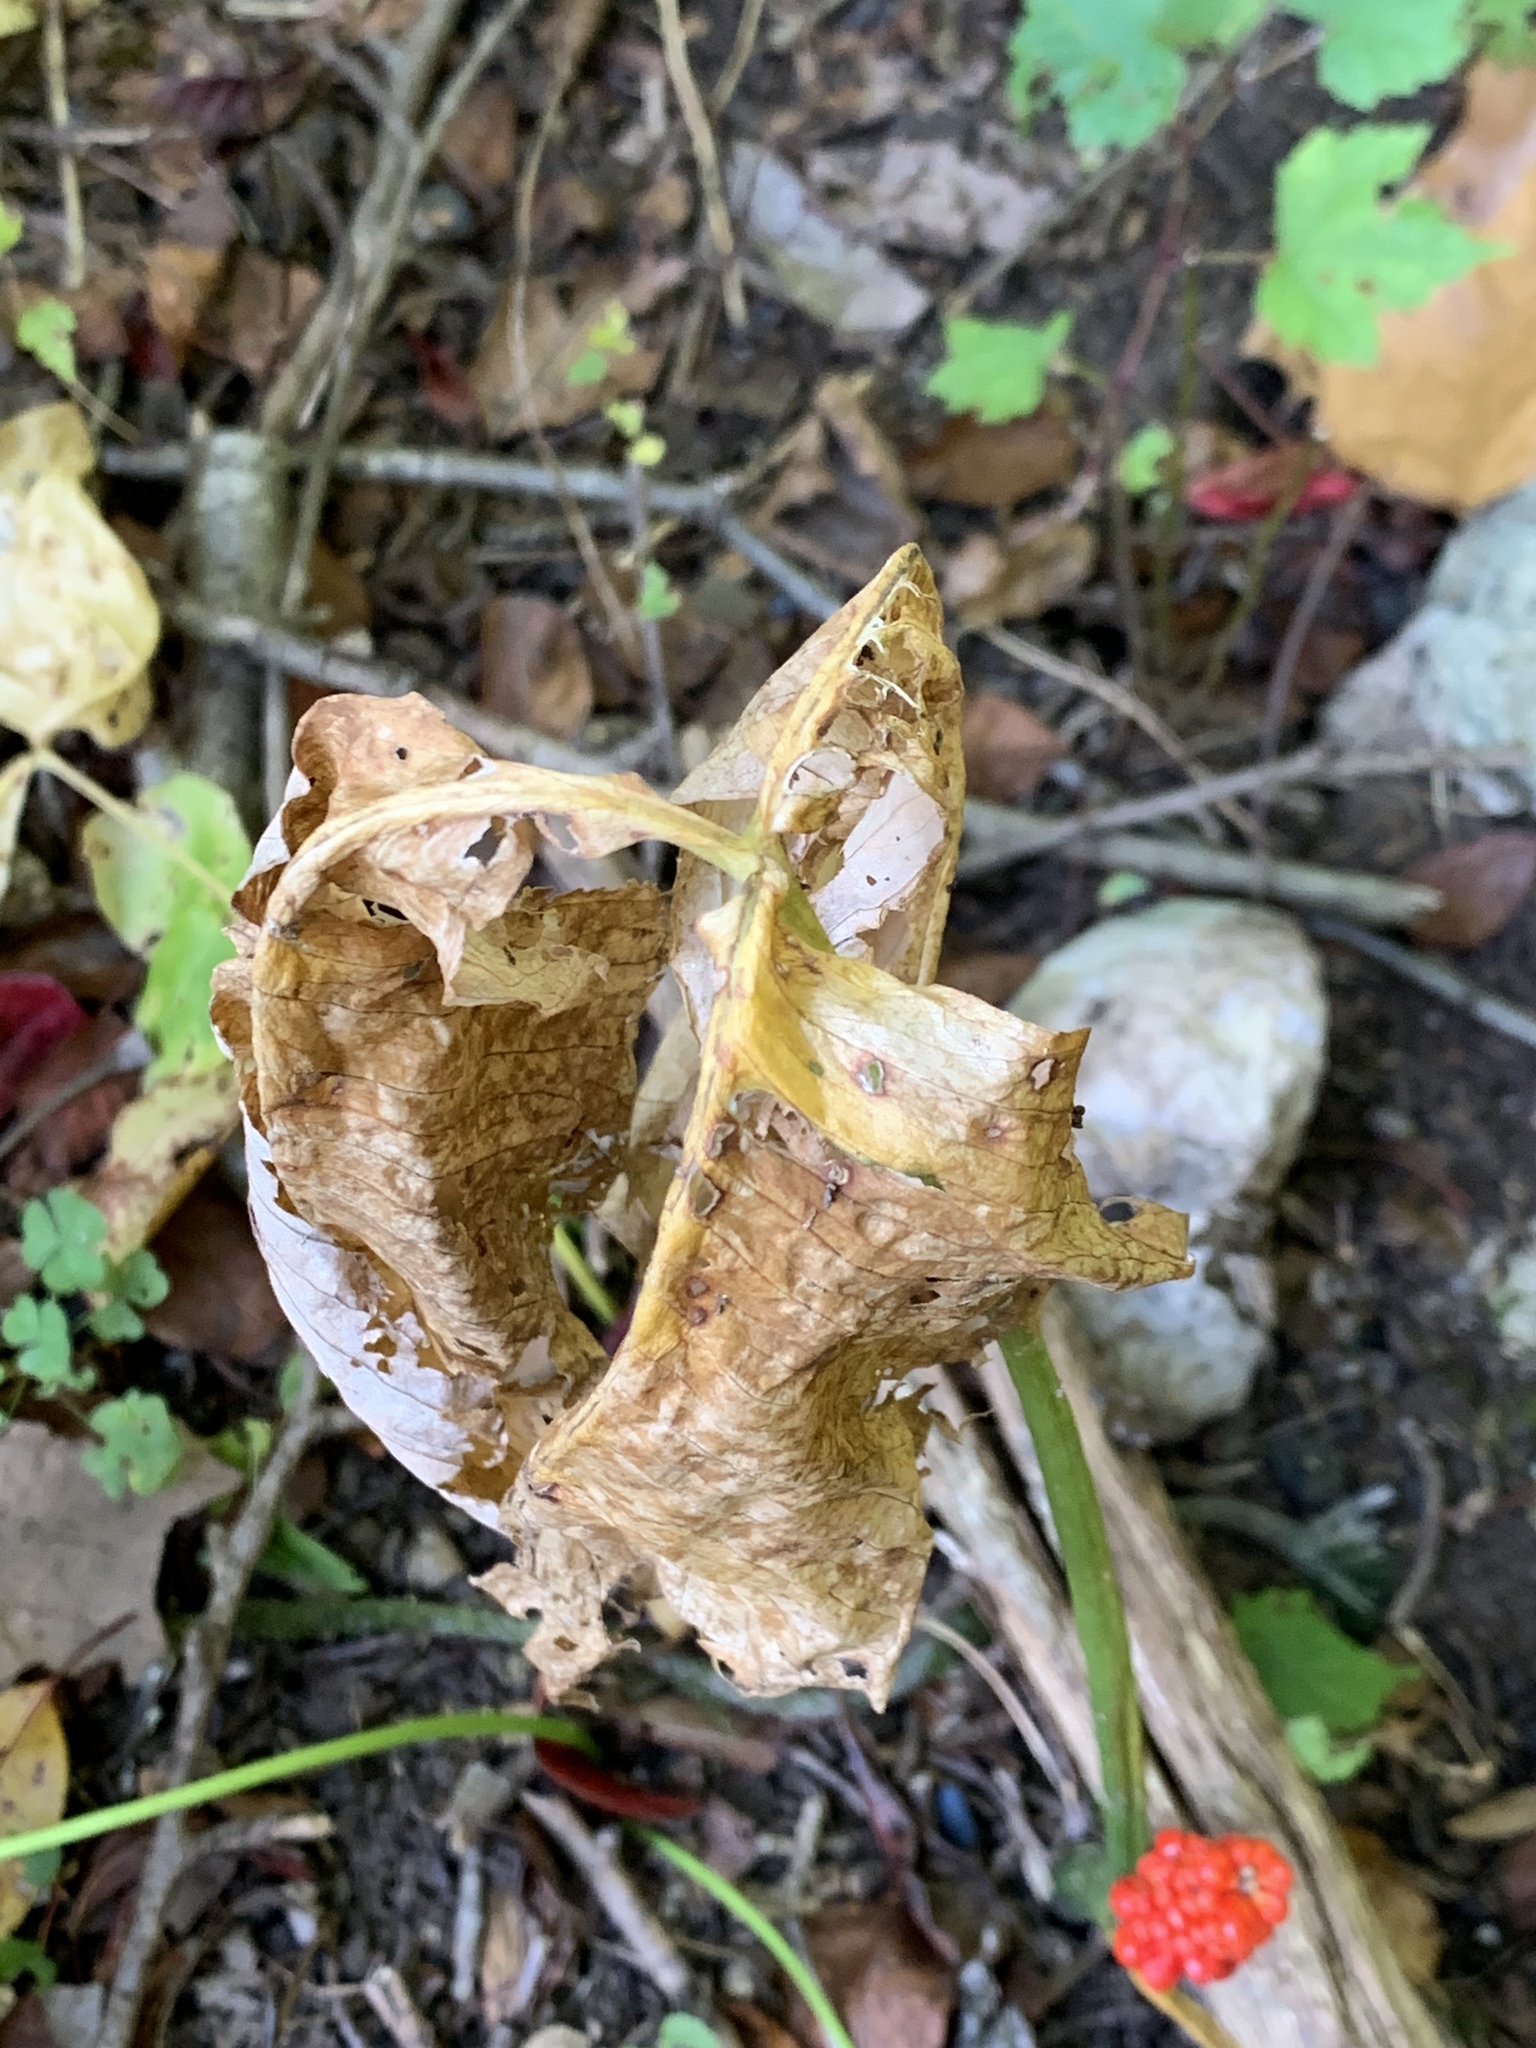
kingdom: Plantae
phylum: Tracheophyta
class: Liliopsida
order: Alismatales
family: Araceae
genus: Arisaema
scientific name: Arisaema triphyllum
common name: Jack-in-the-pulpit
